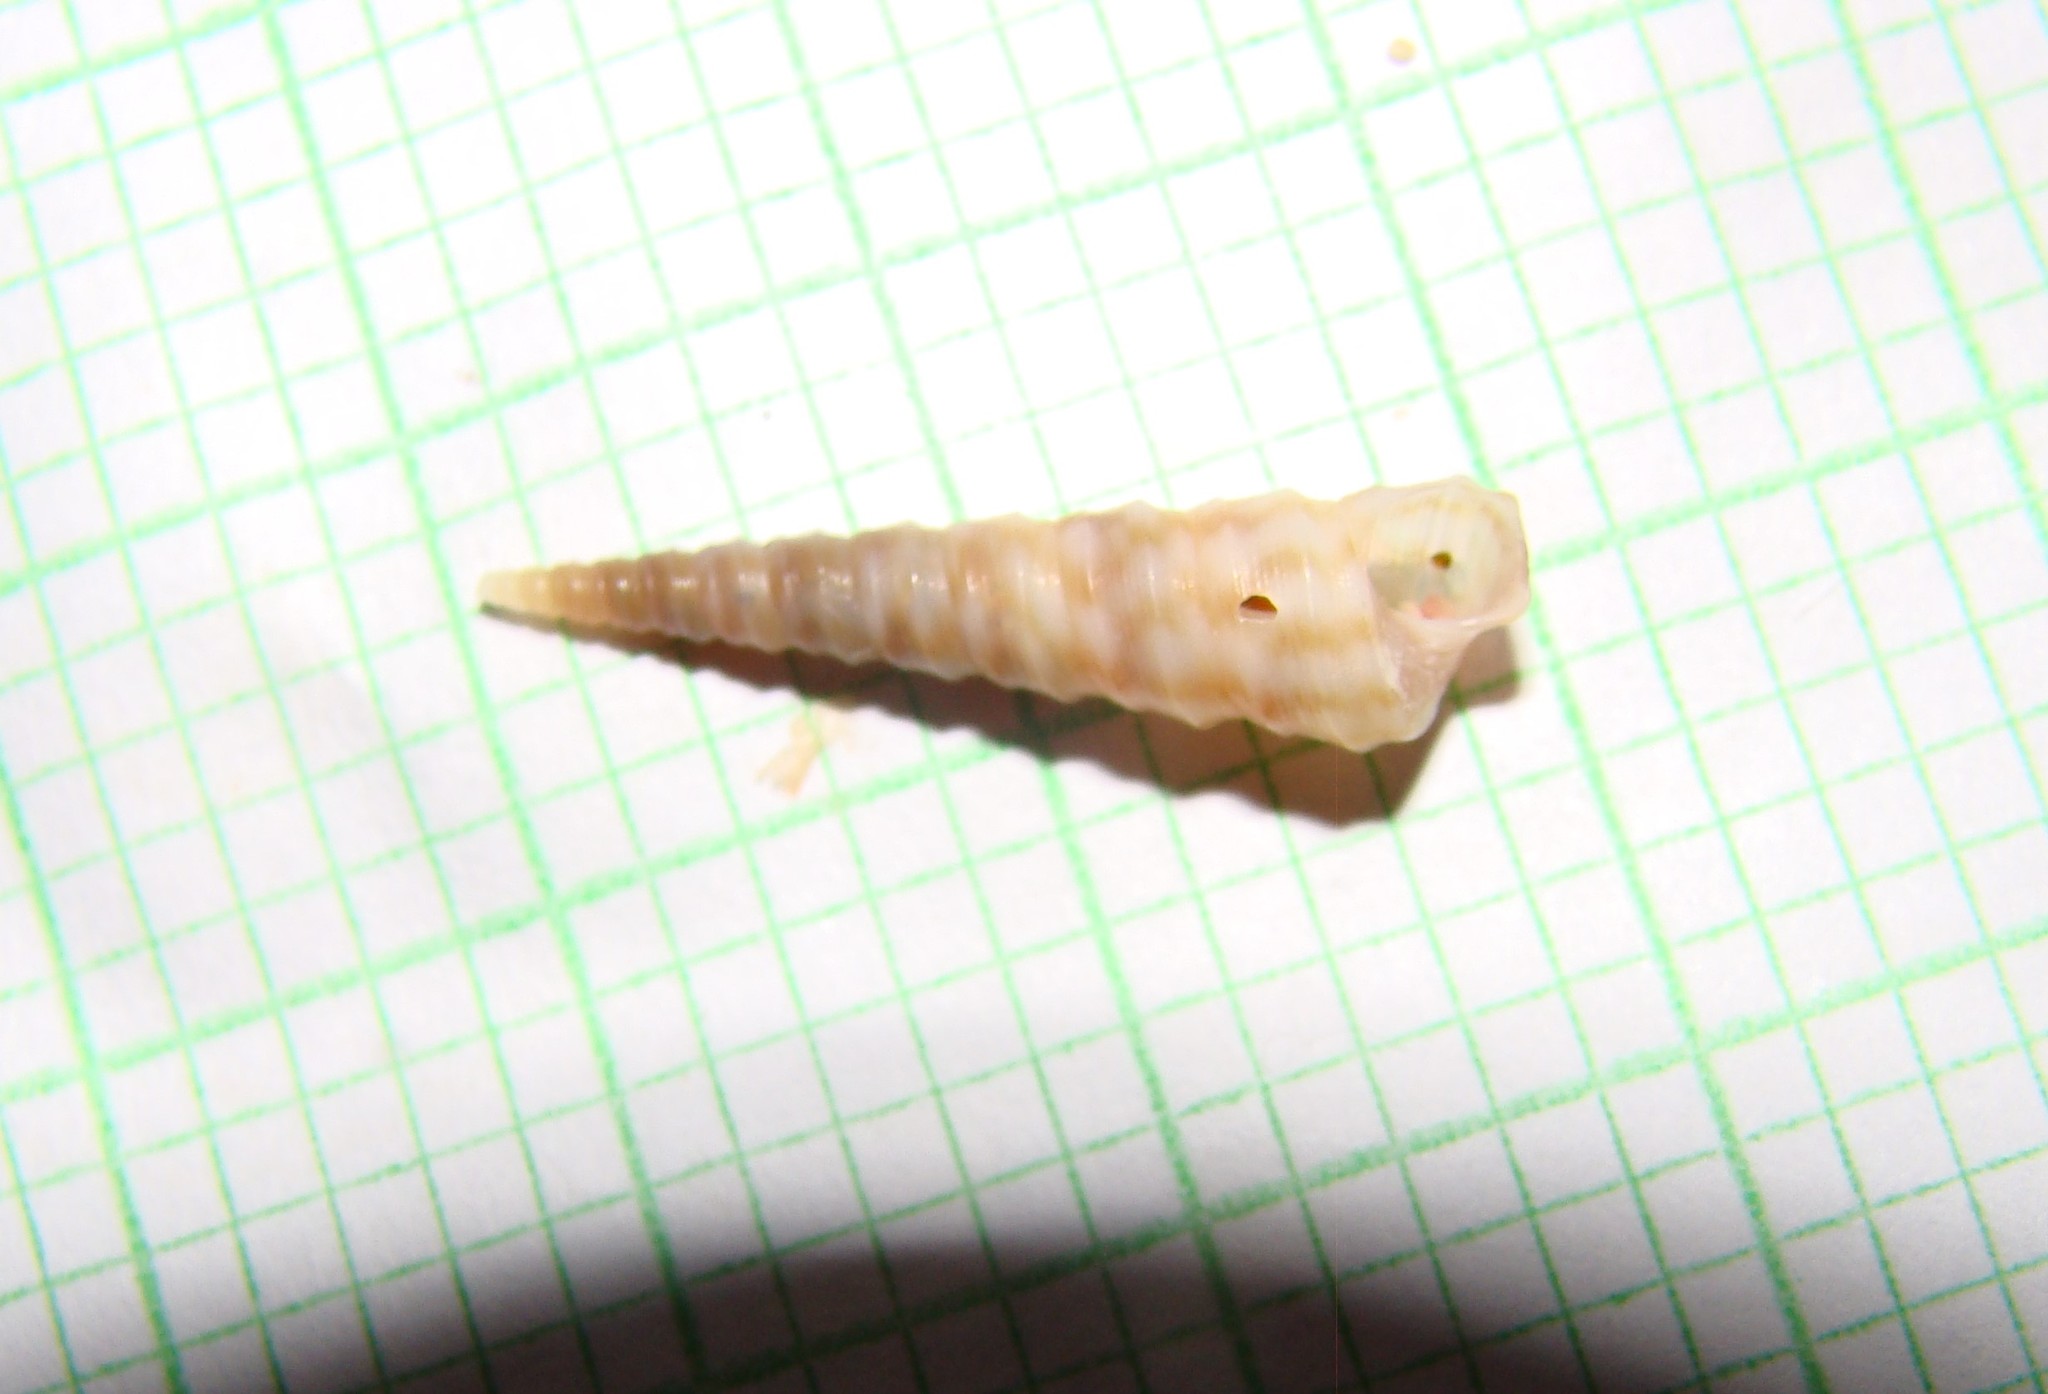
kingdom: Animalia
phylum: Mollusca
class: Gastropoda
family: Turritellidae
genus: Stiracolpus
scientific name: Stiracolpus pagoda
